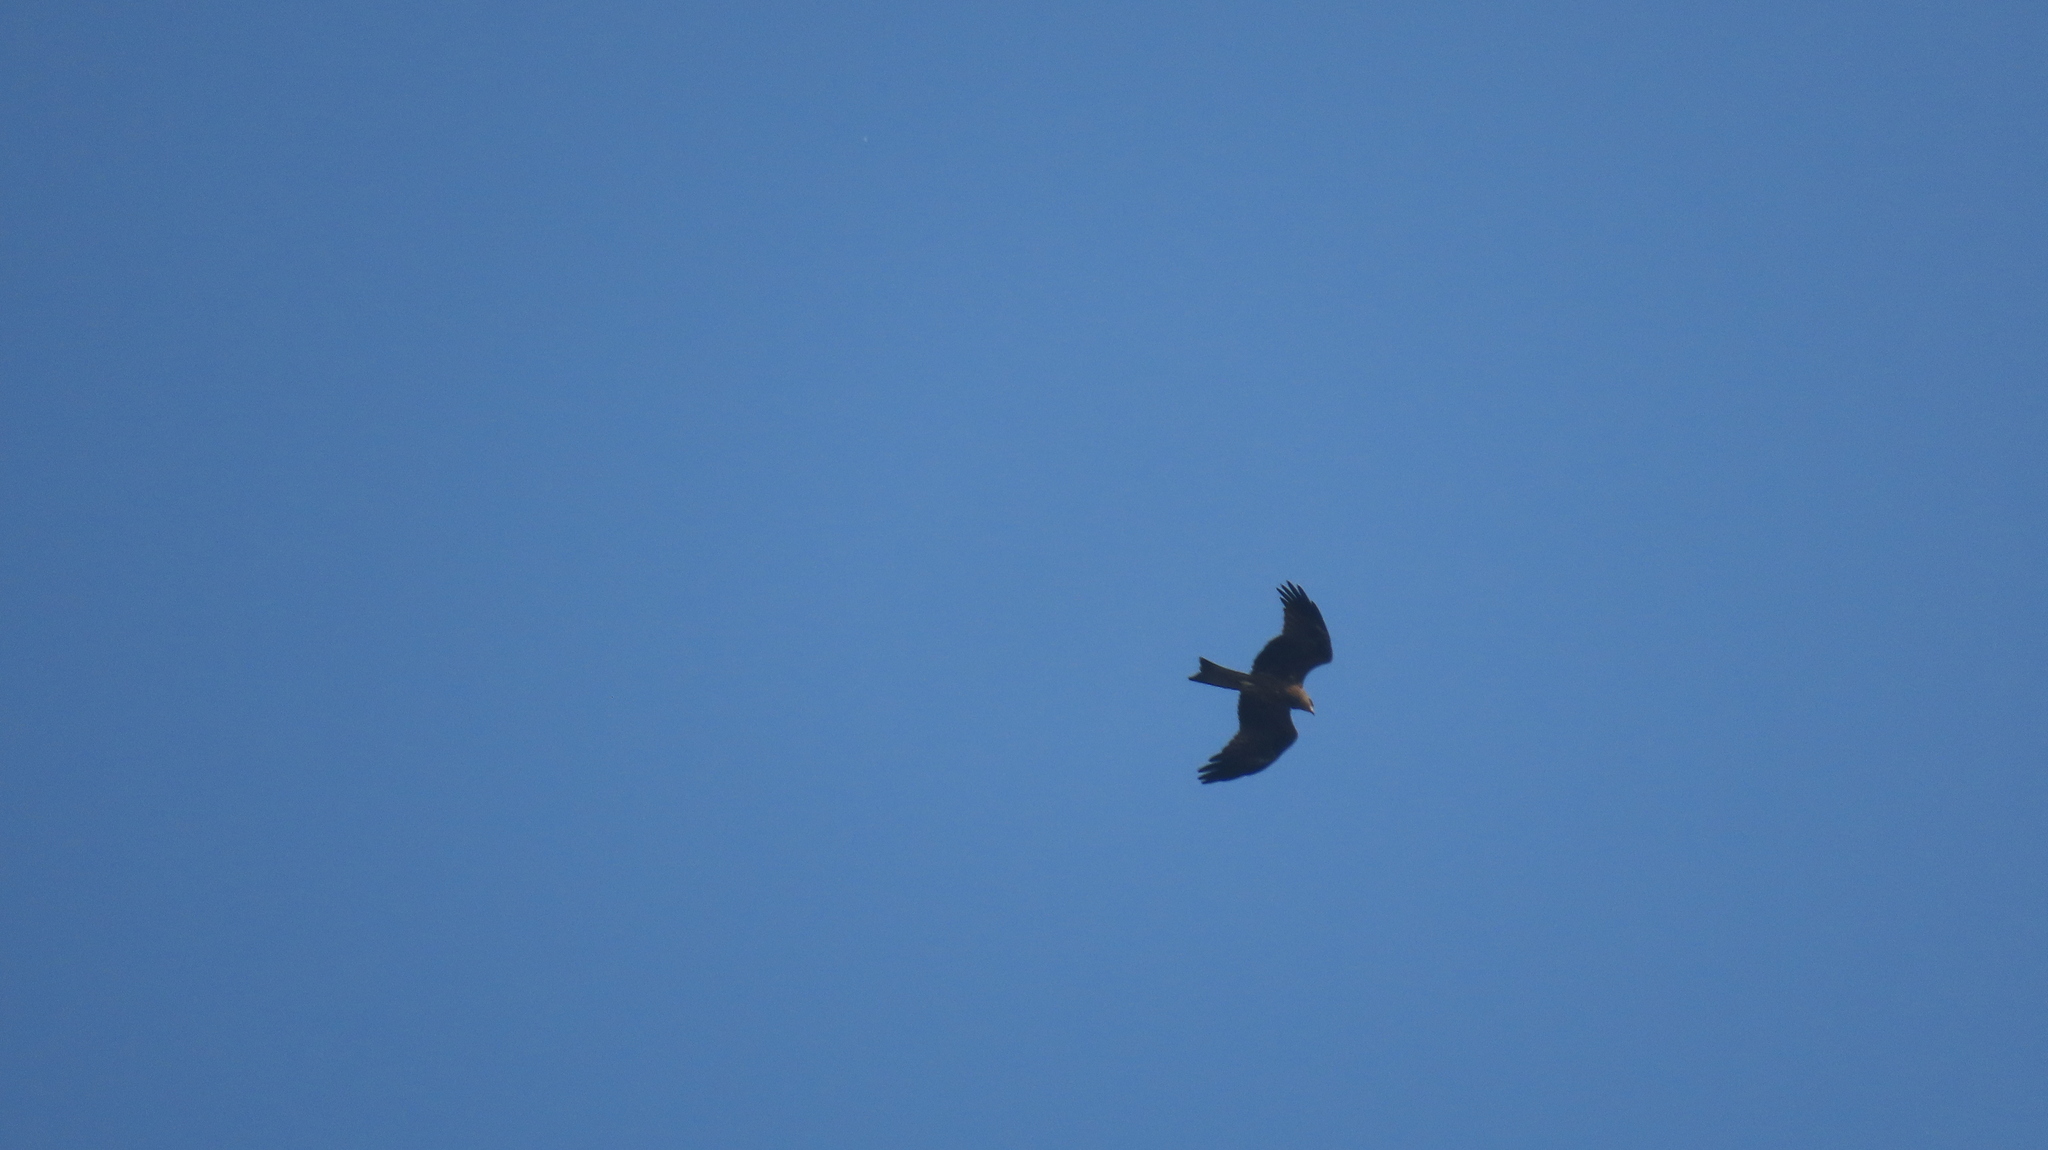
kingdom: Animalia
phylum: Chordata
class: Aves
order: Accipitriformes
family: Accipitridae
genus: Milvus
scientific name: Milvus migrans
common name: Black kite
